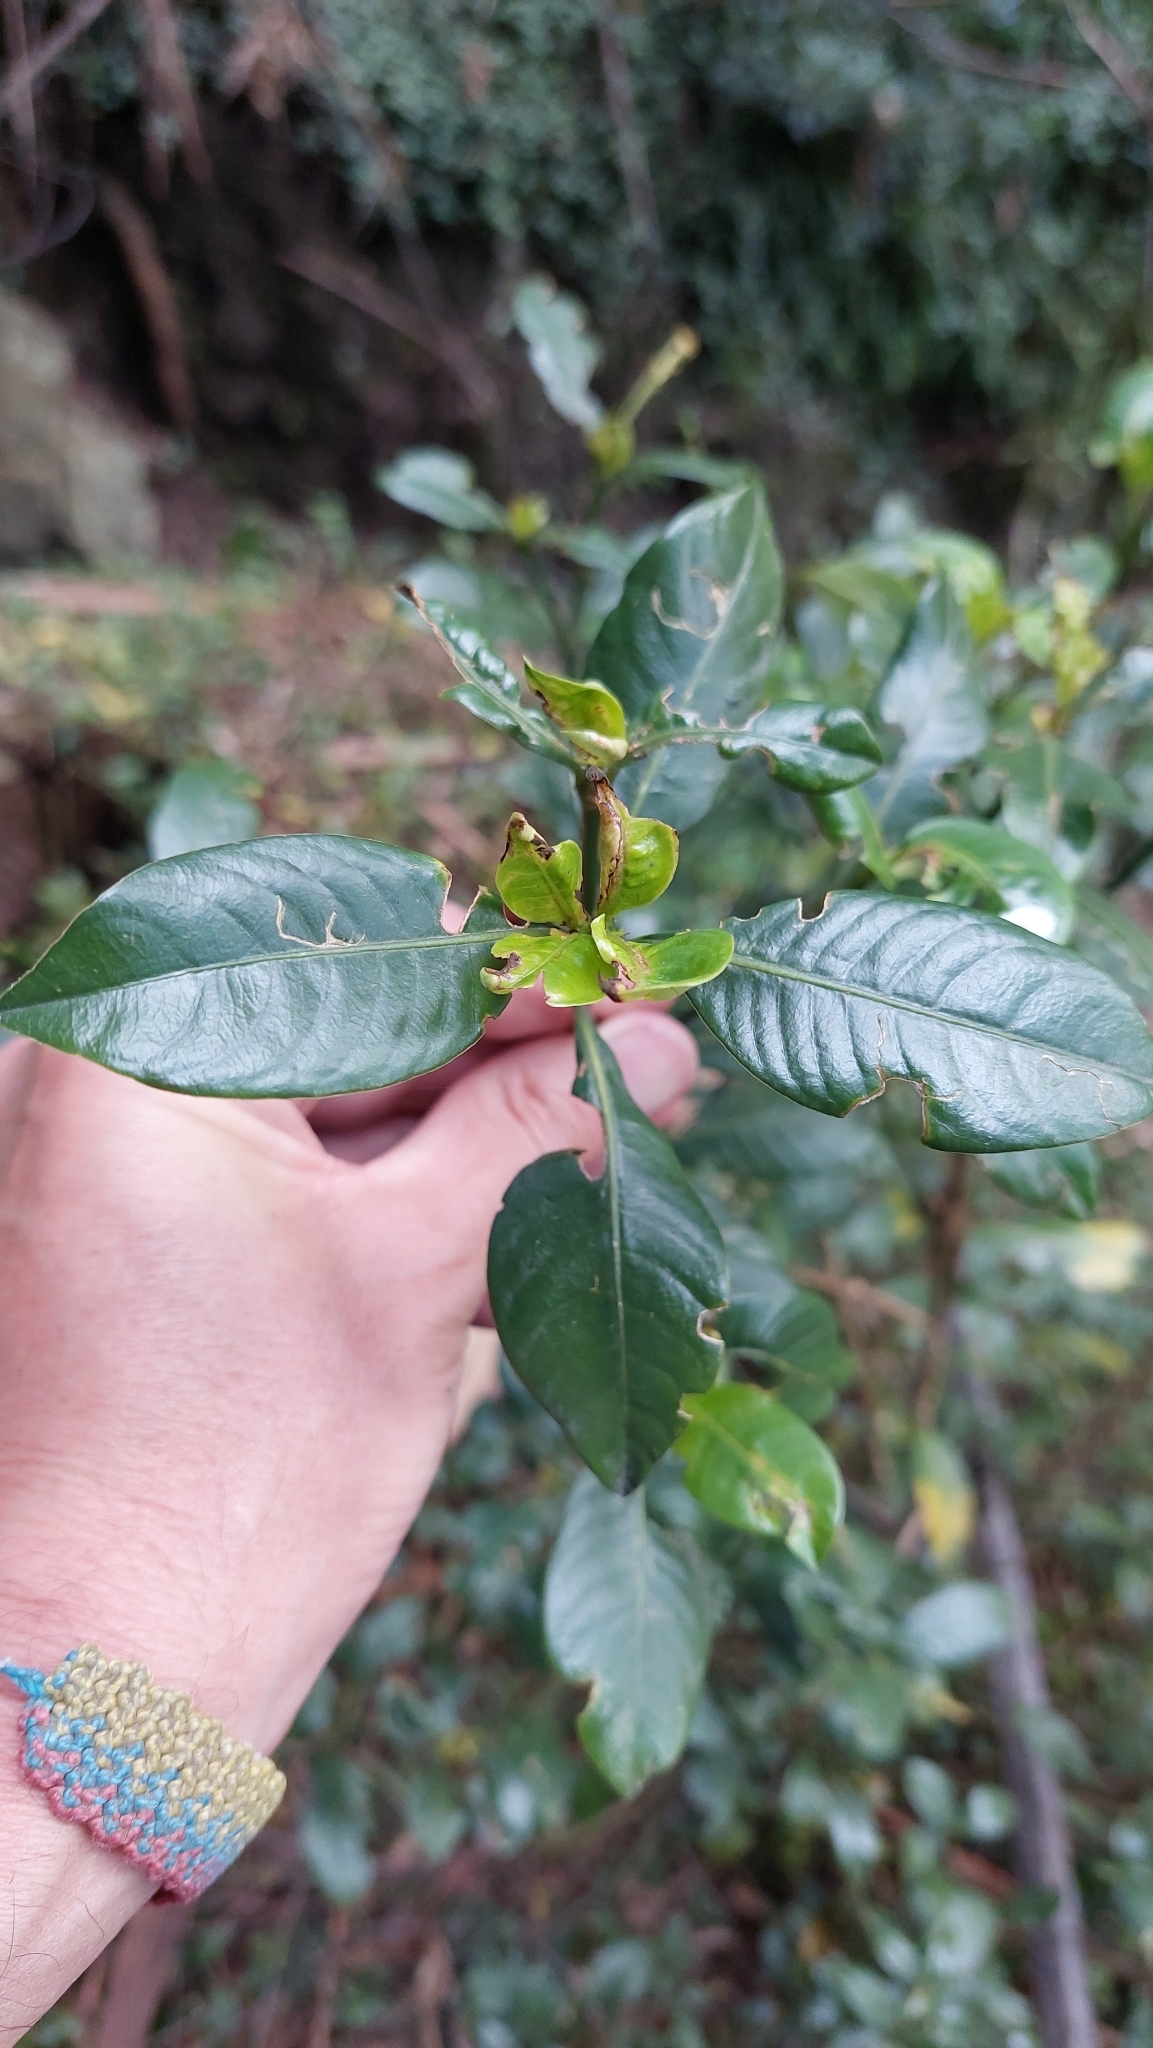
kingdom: Plantae
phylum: Tracheophyta
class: Magnoliopsida
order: Gentianales
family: Rubiaceae
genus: Palicourea
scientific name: Palicourea boqueronensis
